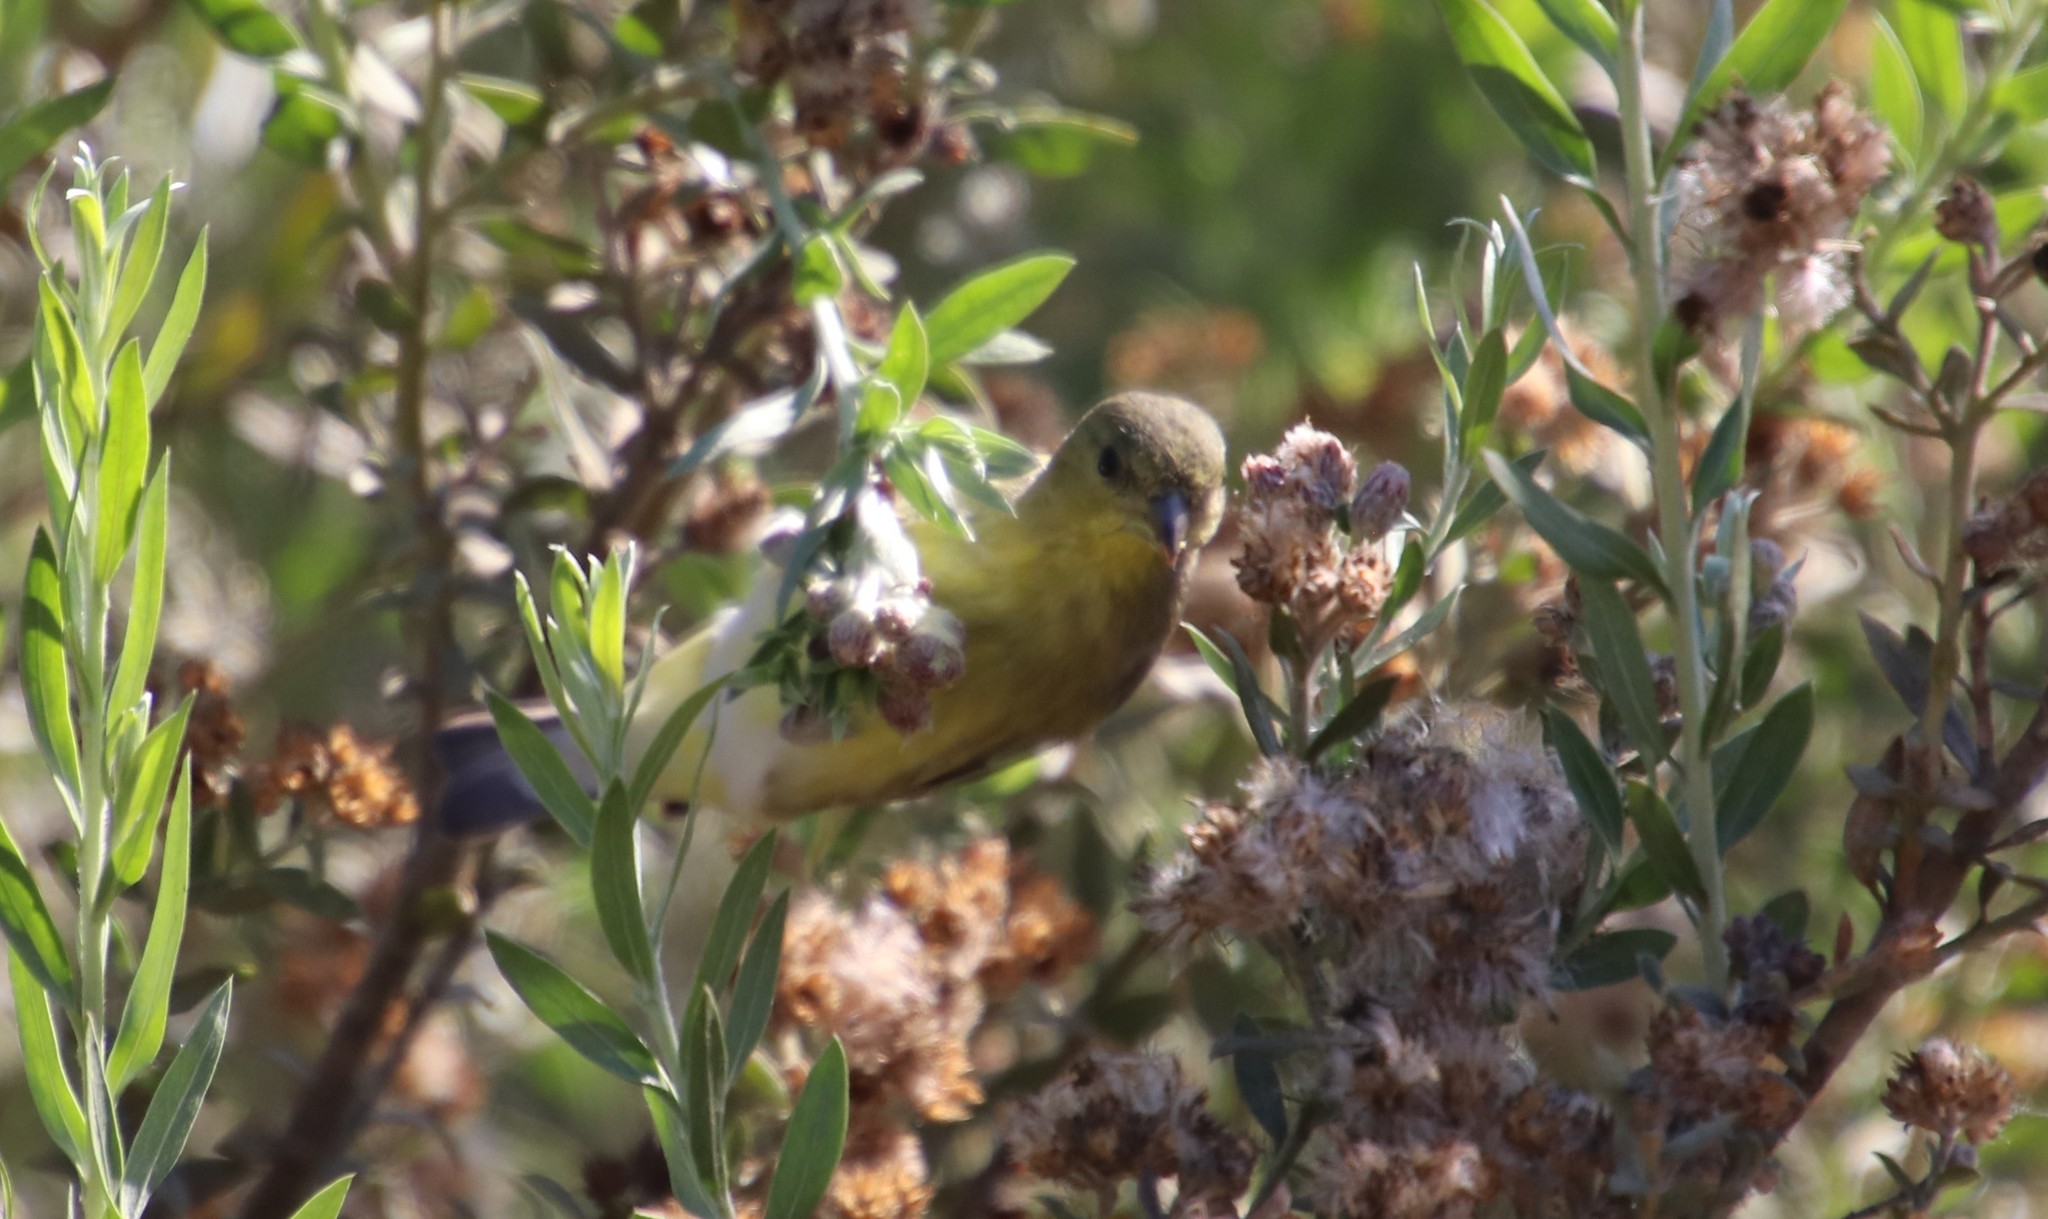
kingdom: Animalia
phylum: Chordata
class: Aves
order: Passeriformes
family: Fringillidae
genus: Spinus
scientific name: Spinus psaltria
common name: Lesser goldfinch
